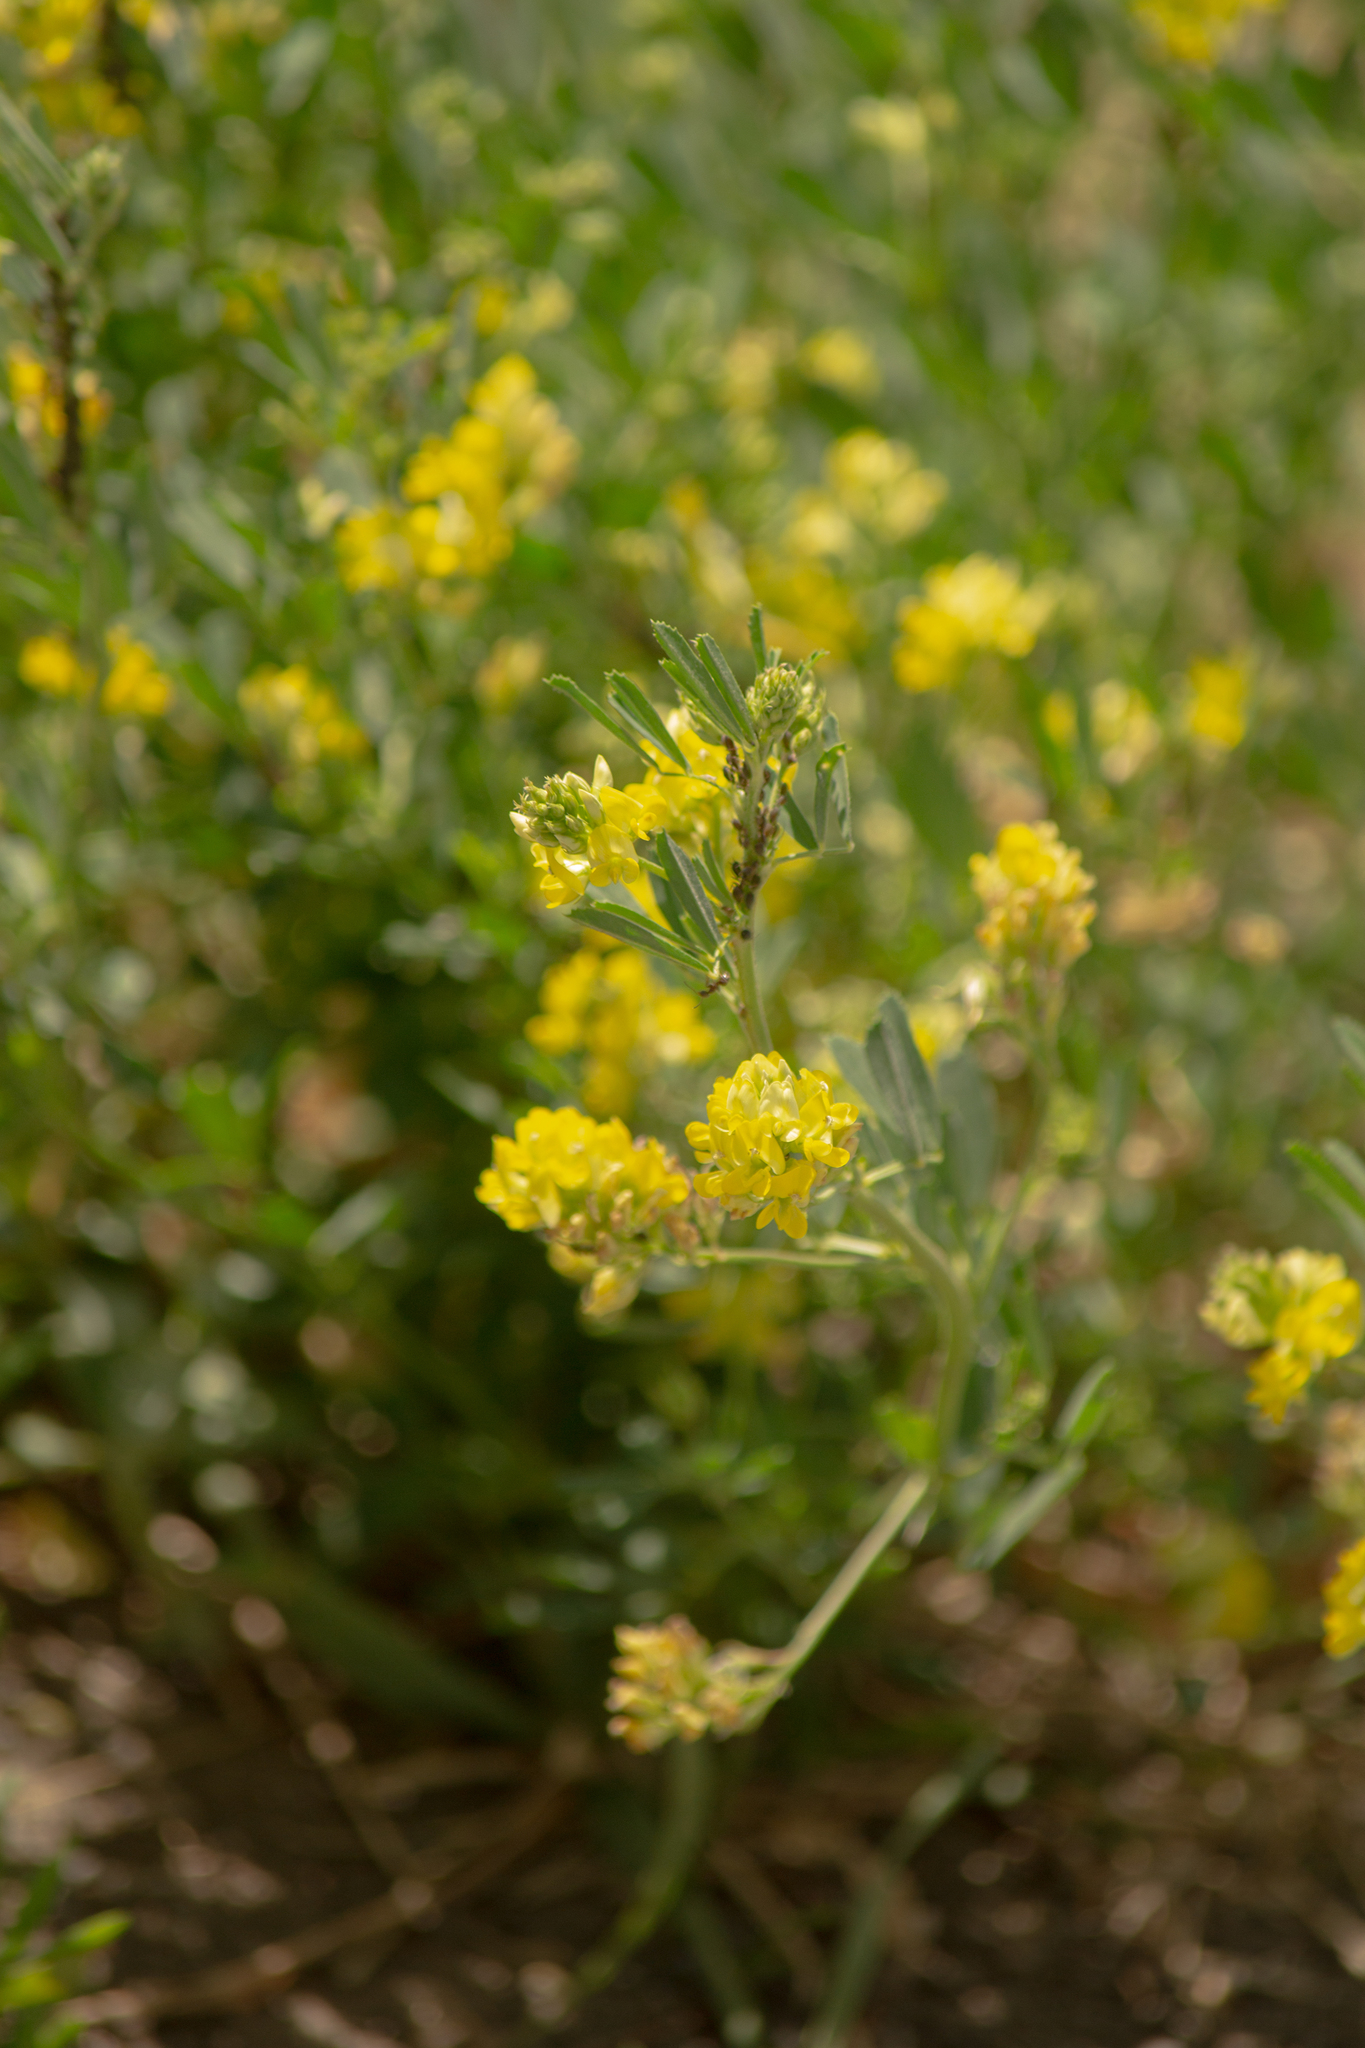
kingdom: Plantae
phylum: Tracheophyta
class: Magnoliopsida
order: Fabales
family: Fabaceae
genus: Medicago
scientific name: Medicago falcata
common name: Sickle medick
